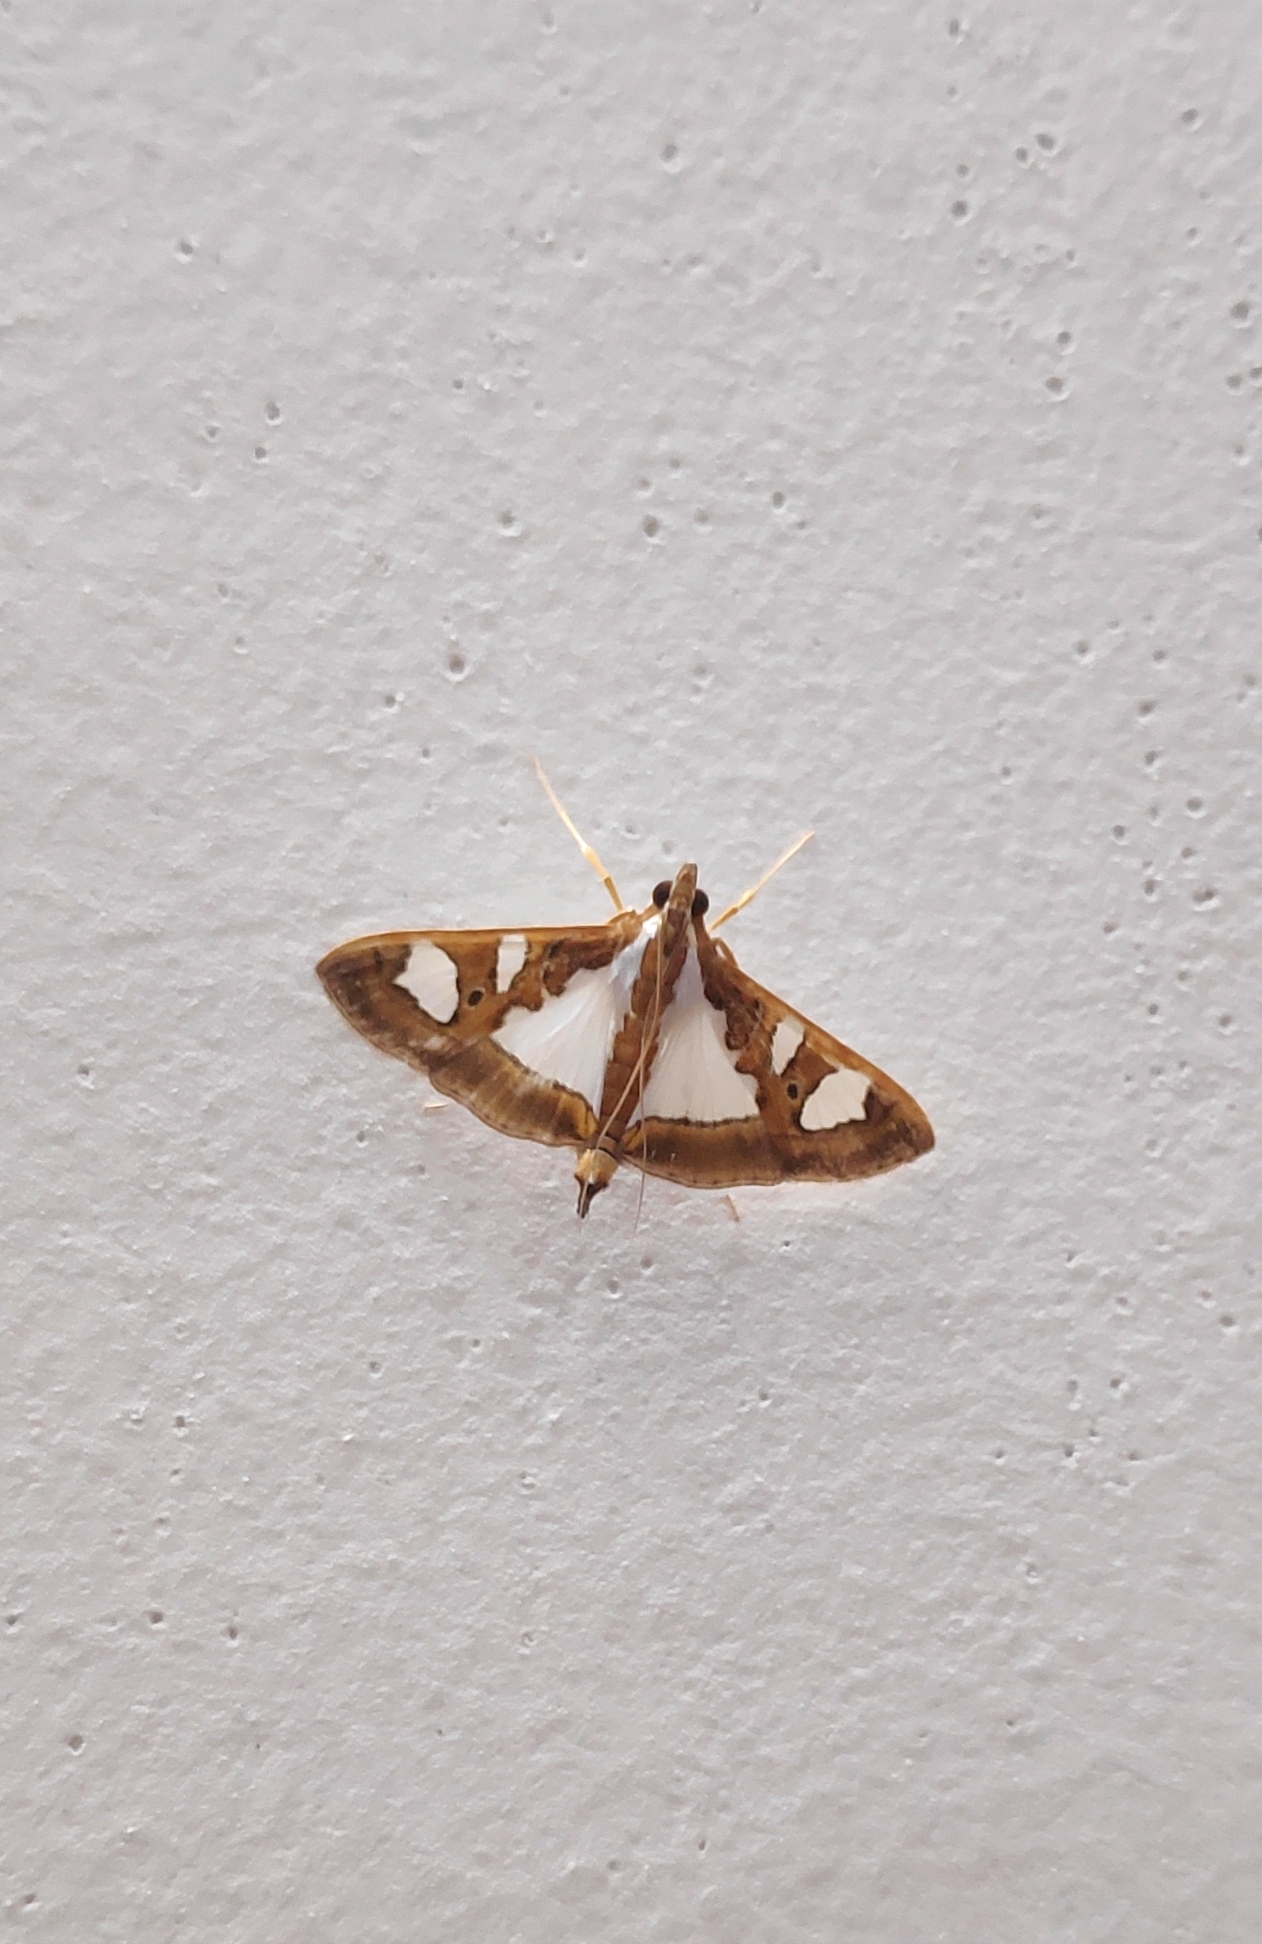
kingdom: Animalia
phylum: Arthropoda
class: Insecta
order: Lepidoptera
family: Crambidae
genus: Glyphodes
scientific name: Glyphodes bivitralis
